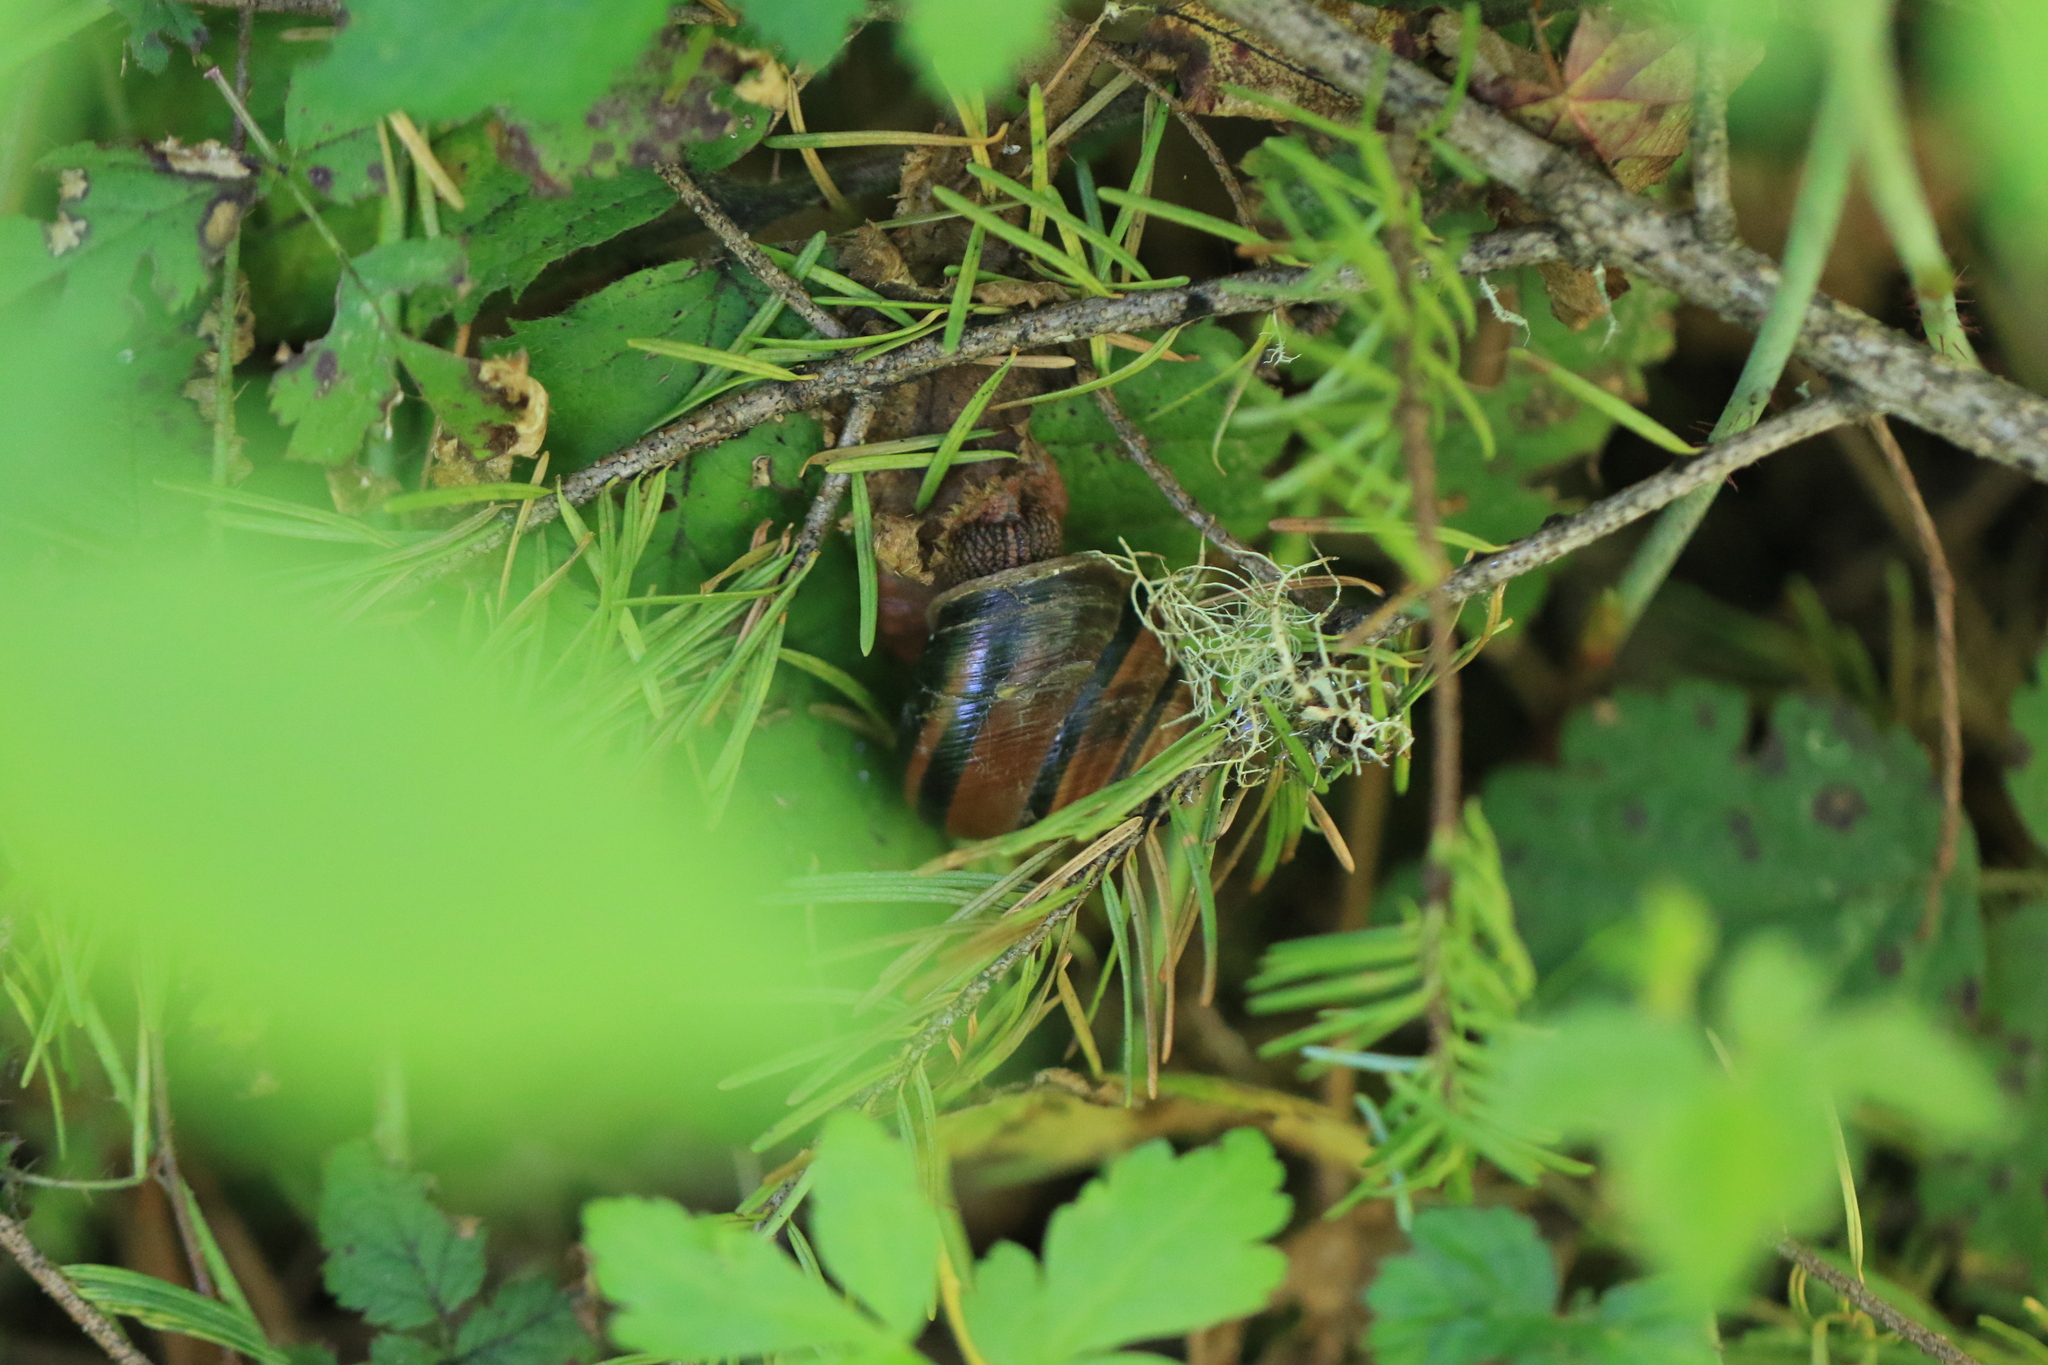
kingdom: Animalia
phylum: Mollusca
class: Gastropoda
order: Stylommatophora
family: Xanthonychidae
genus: Monadenia
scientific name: Monadenia fidelis
